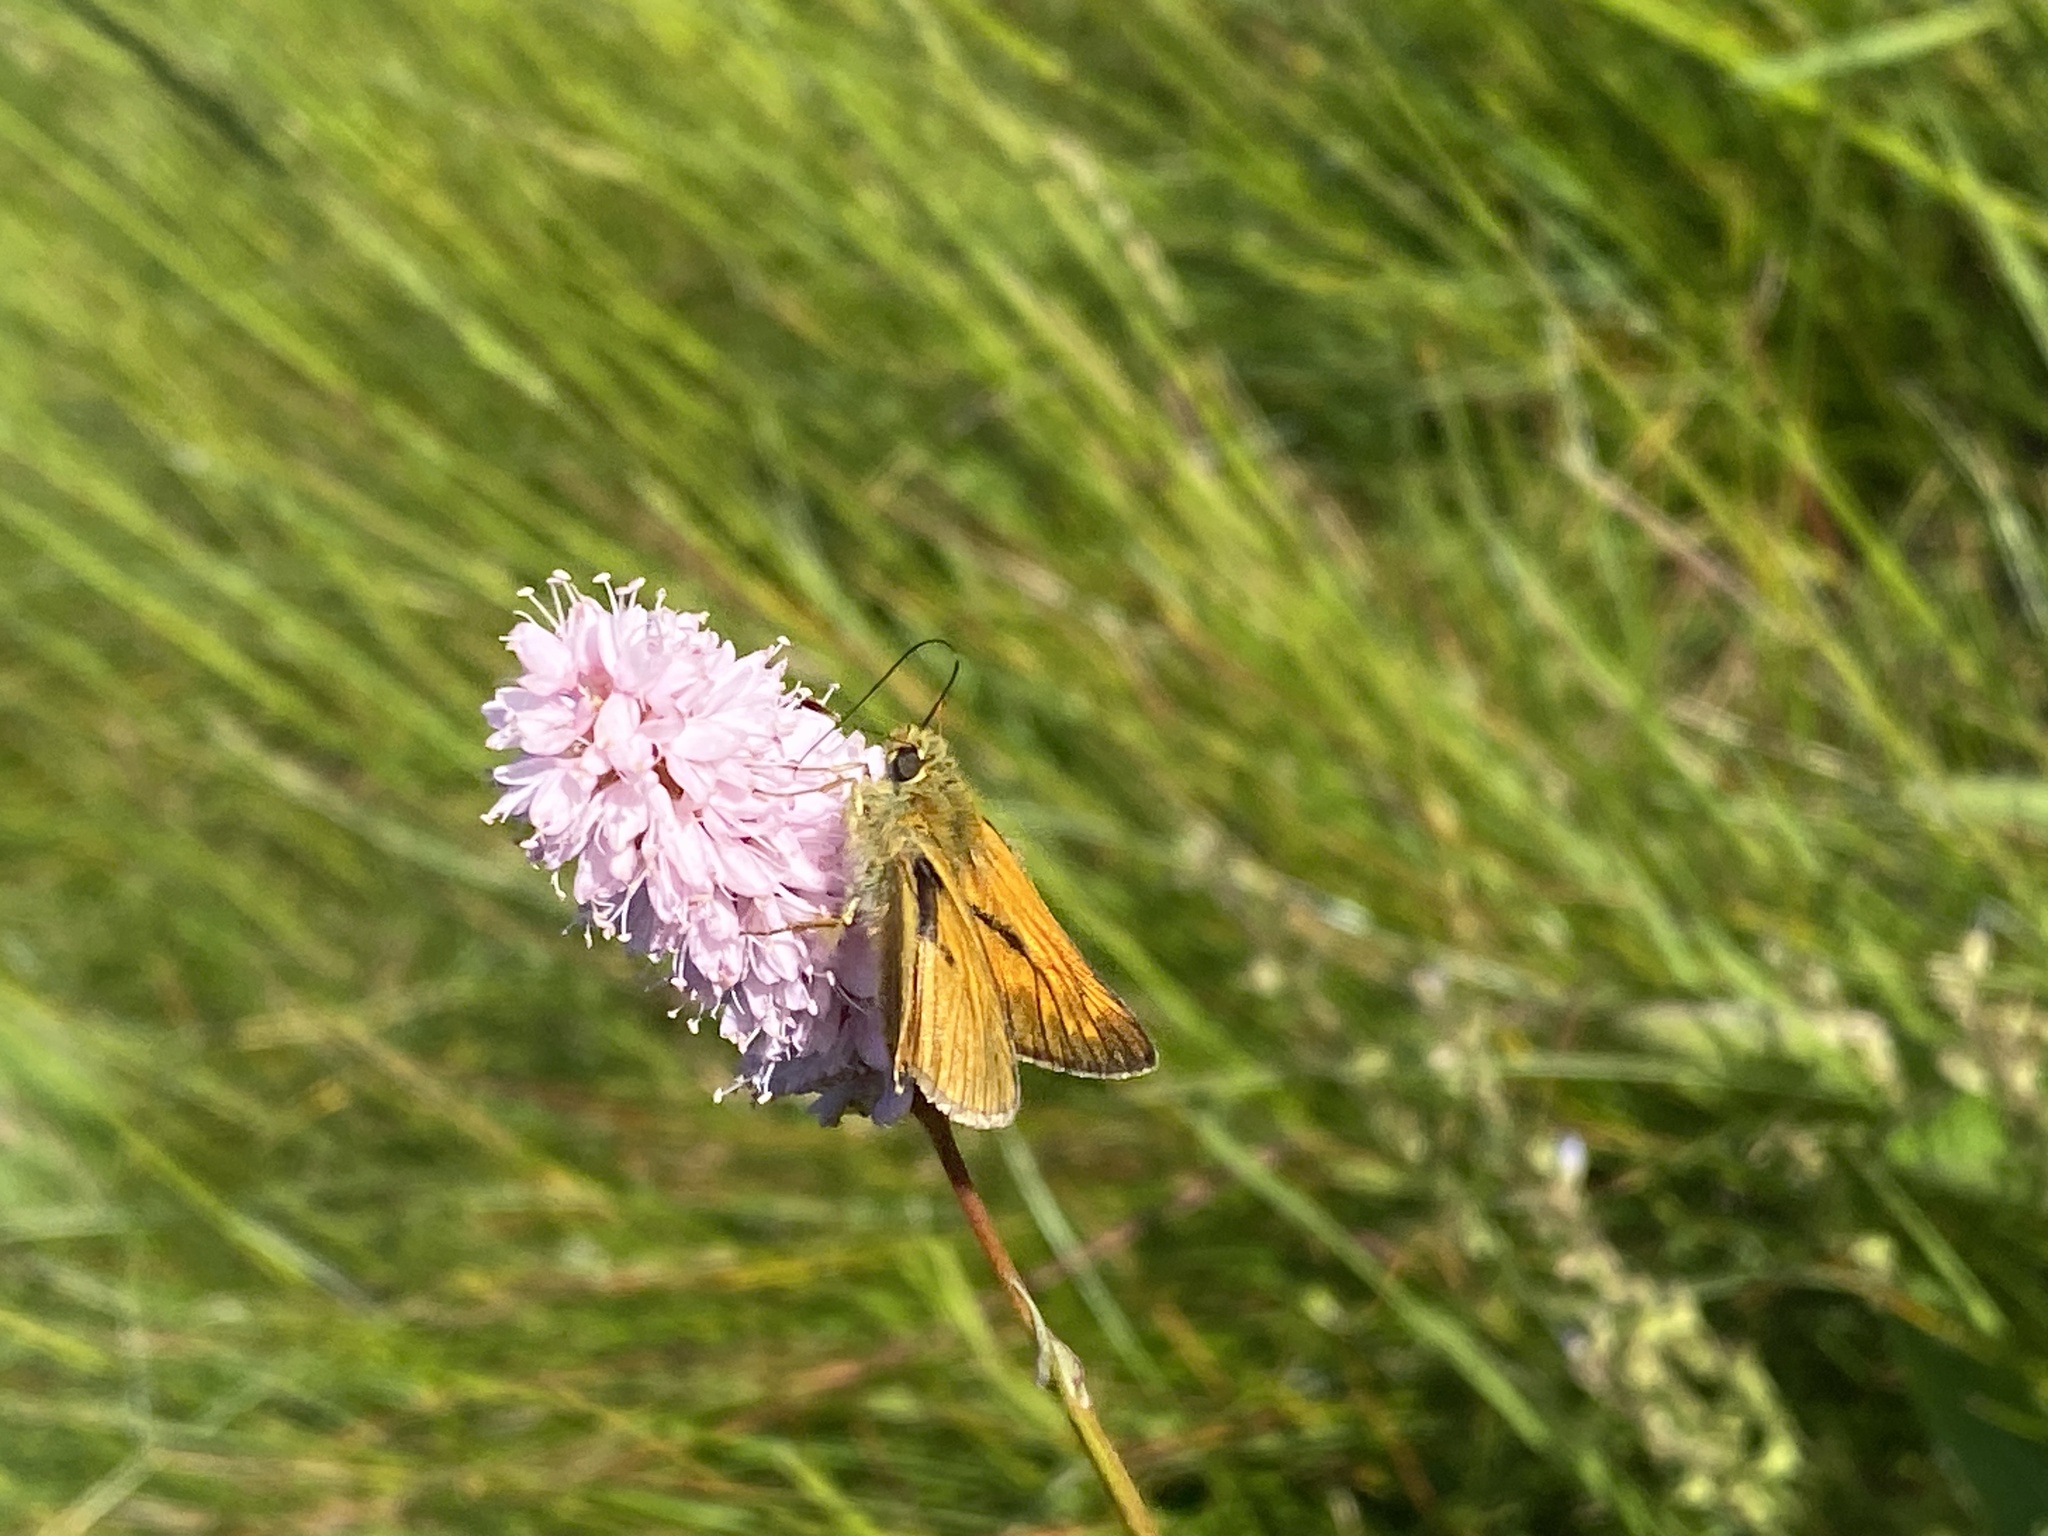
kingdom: Animalia
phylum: Arthropoda
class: Insecta
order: Lepidoptera
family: Hesperiidae
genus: Ochlodes
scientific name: Ochlodes venata
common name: Large skipper
